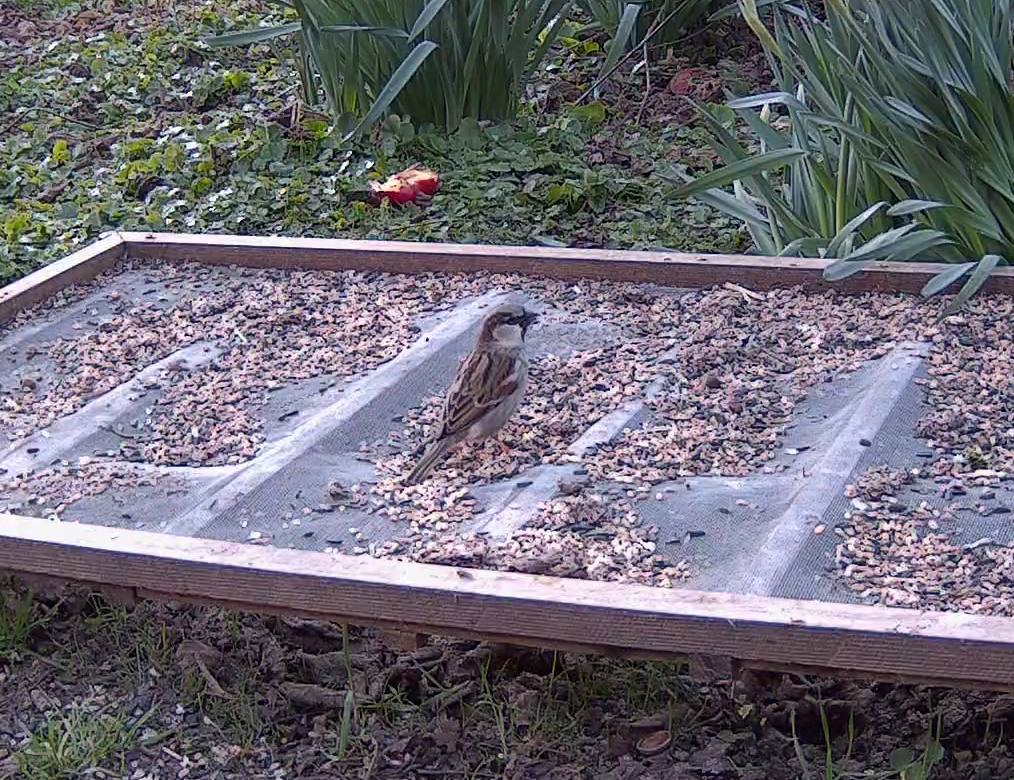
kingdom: Animalia
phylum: Chordata
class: Aves
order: Passeriformes
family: Passeridae
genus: Passer
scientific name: Passer domesticus
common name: House sparrow
